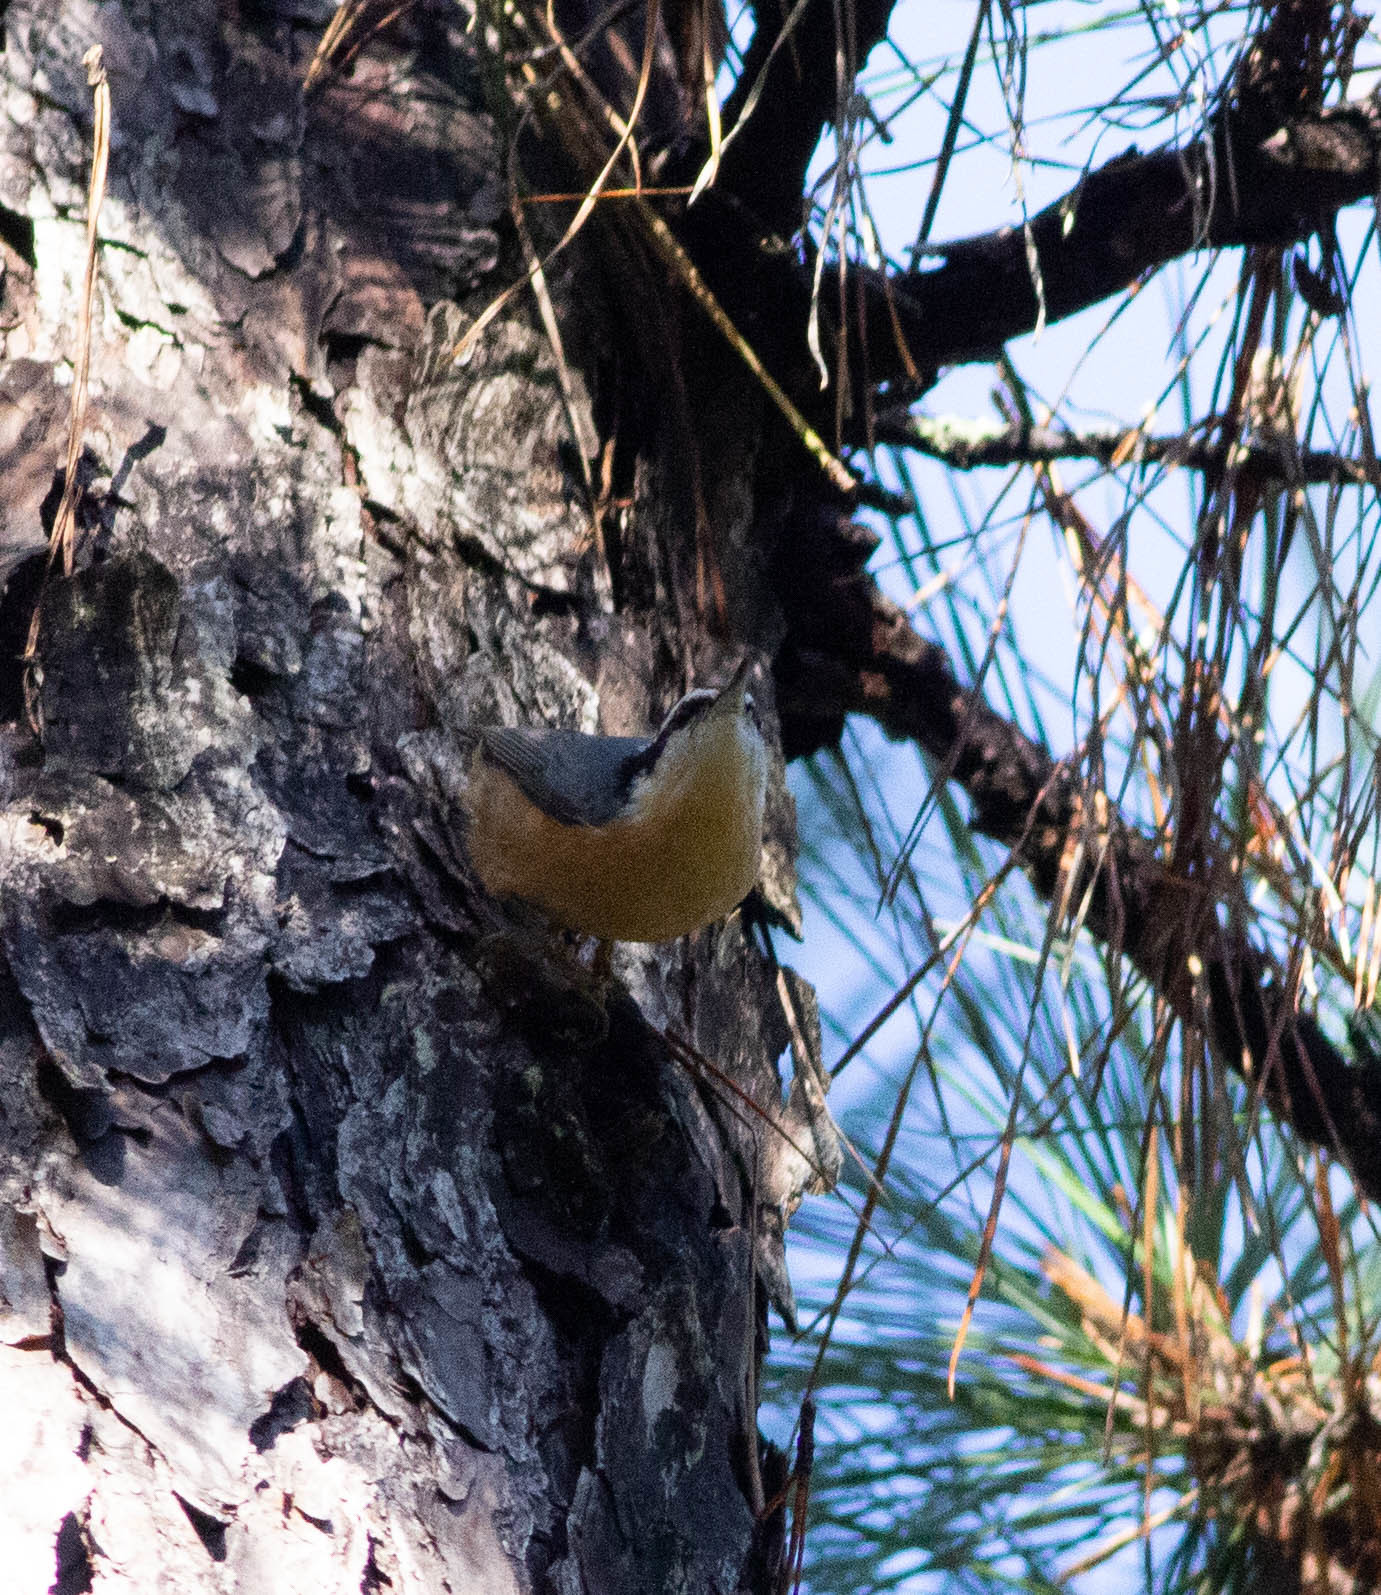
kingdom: Animalia
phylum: Chordata
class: Aves
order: Passeriformes
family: Sittidae
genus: Sitta
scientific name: Sitta canadensis
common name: Red-breasted nuthatch
